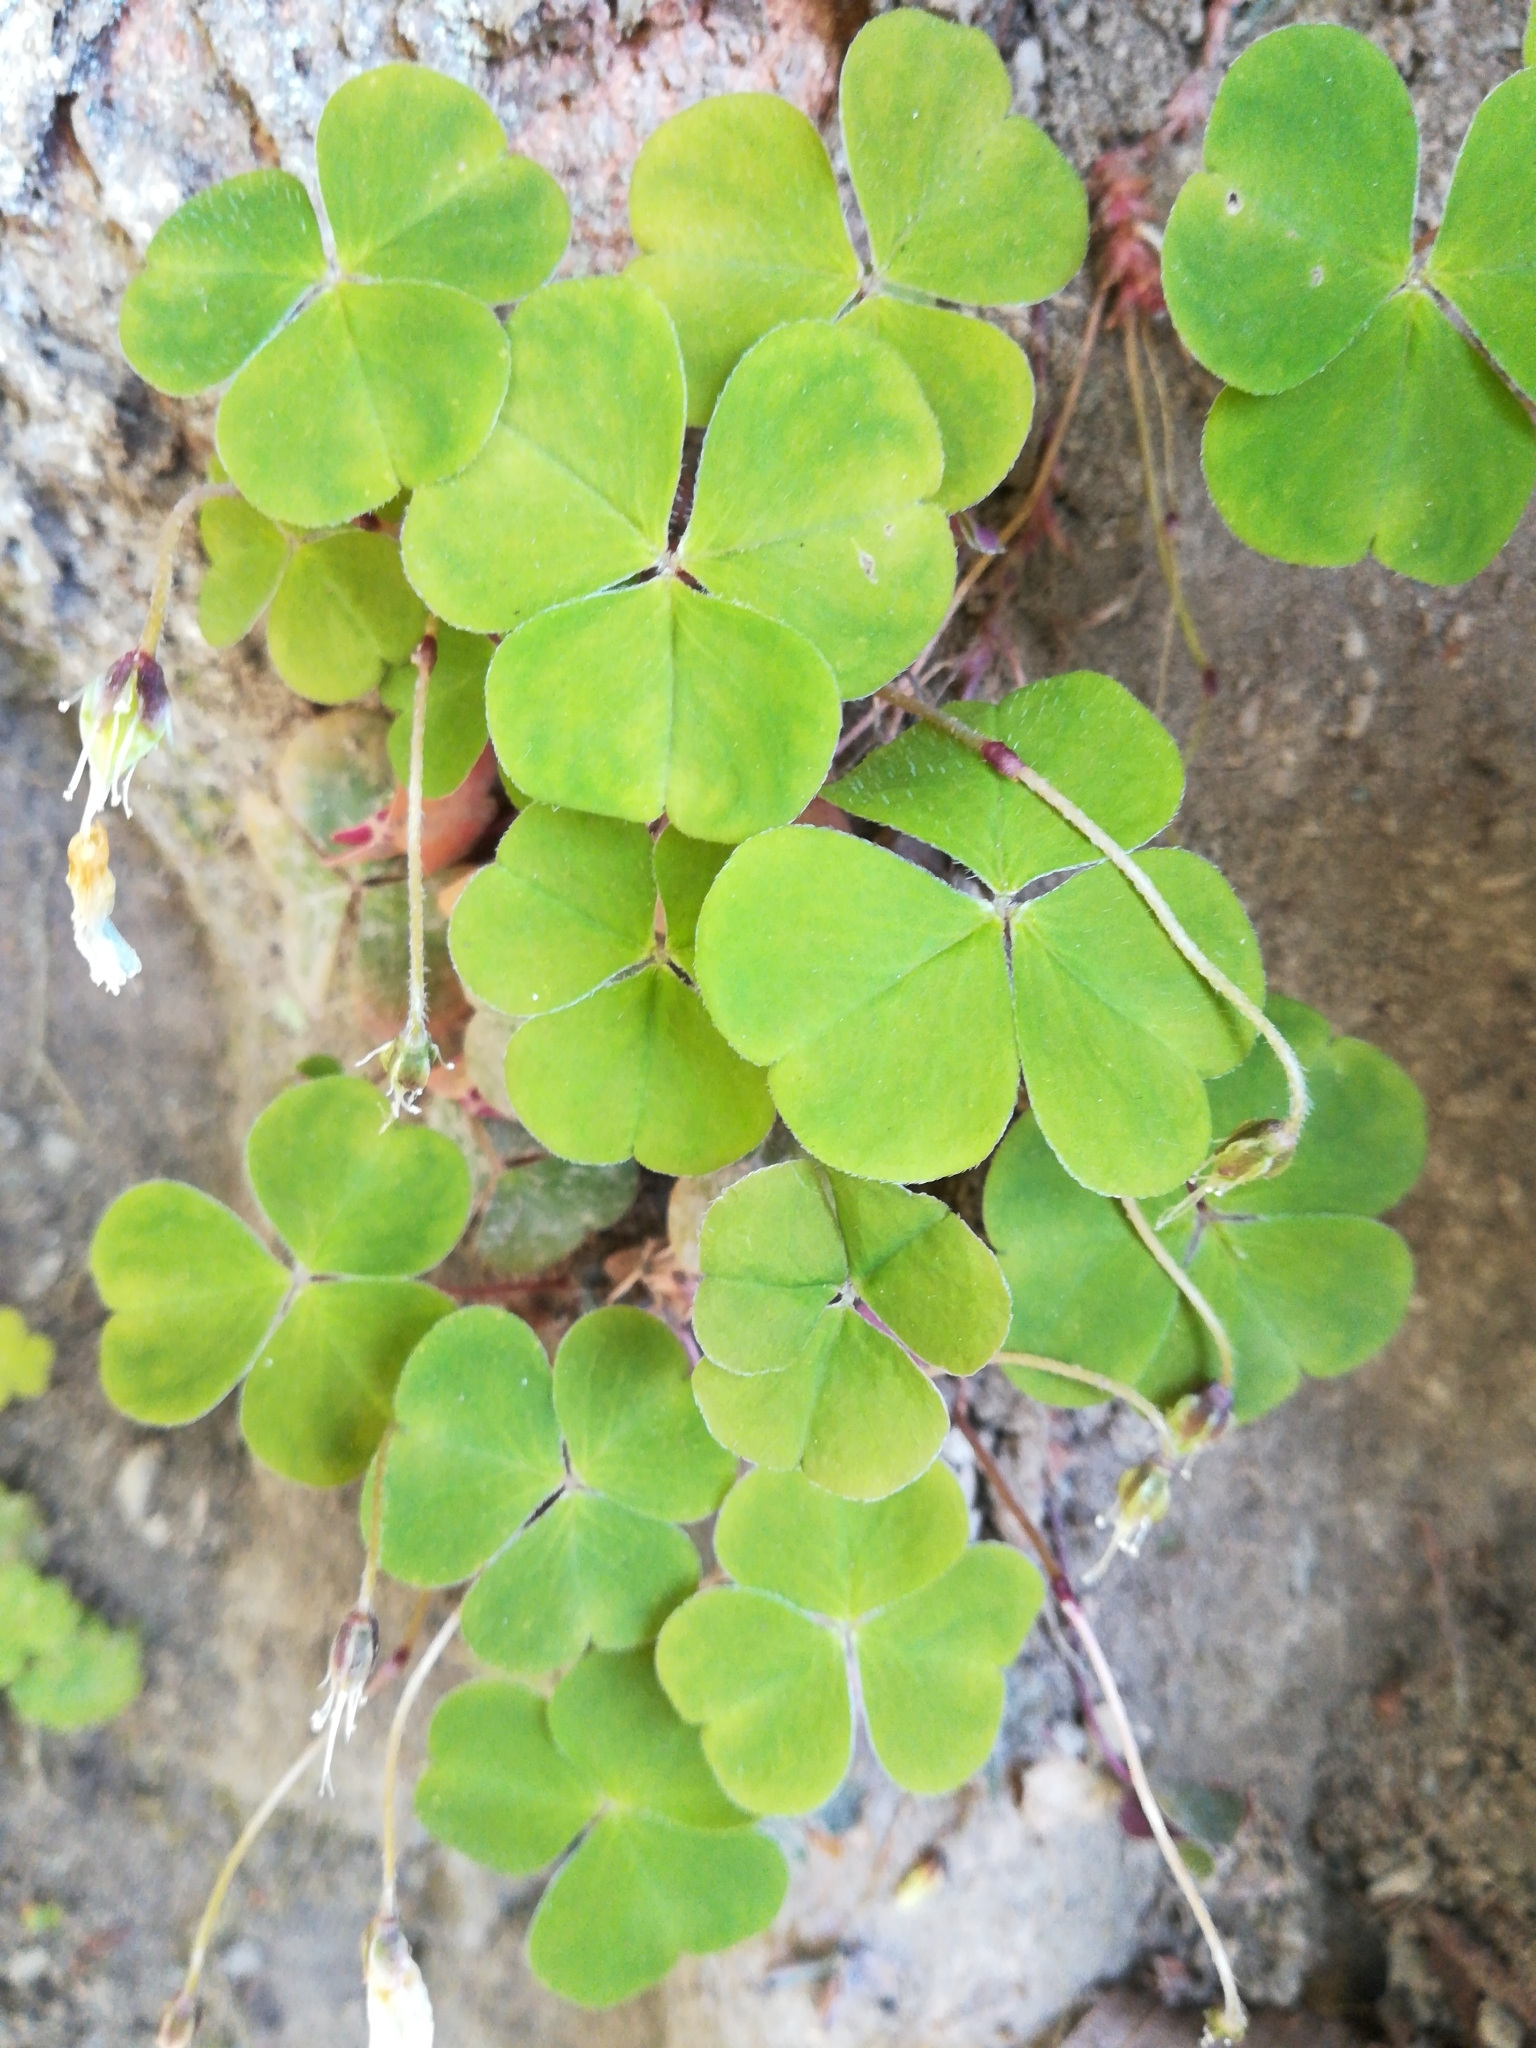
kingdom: Plantae
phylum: Tracheophyta
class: Magnoliopsida
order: Oxalidales
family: Oxalidaceae
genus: Oxalis
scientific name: Oxalis acetosella
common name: Wood-sorrel
